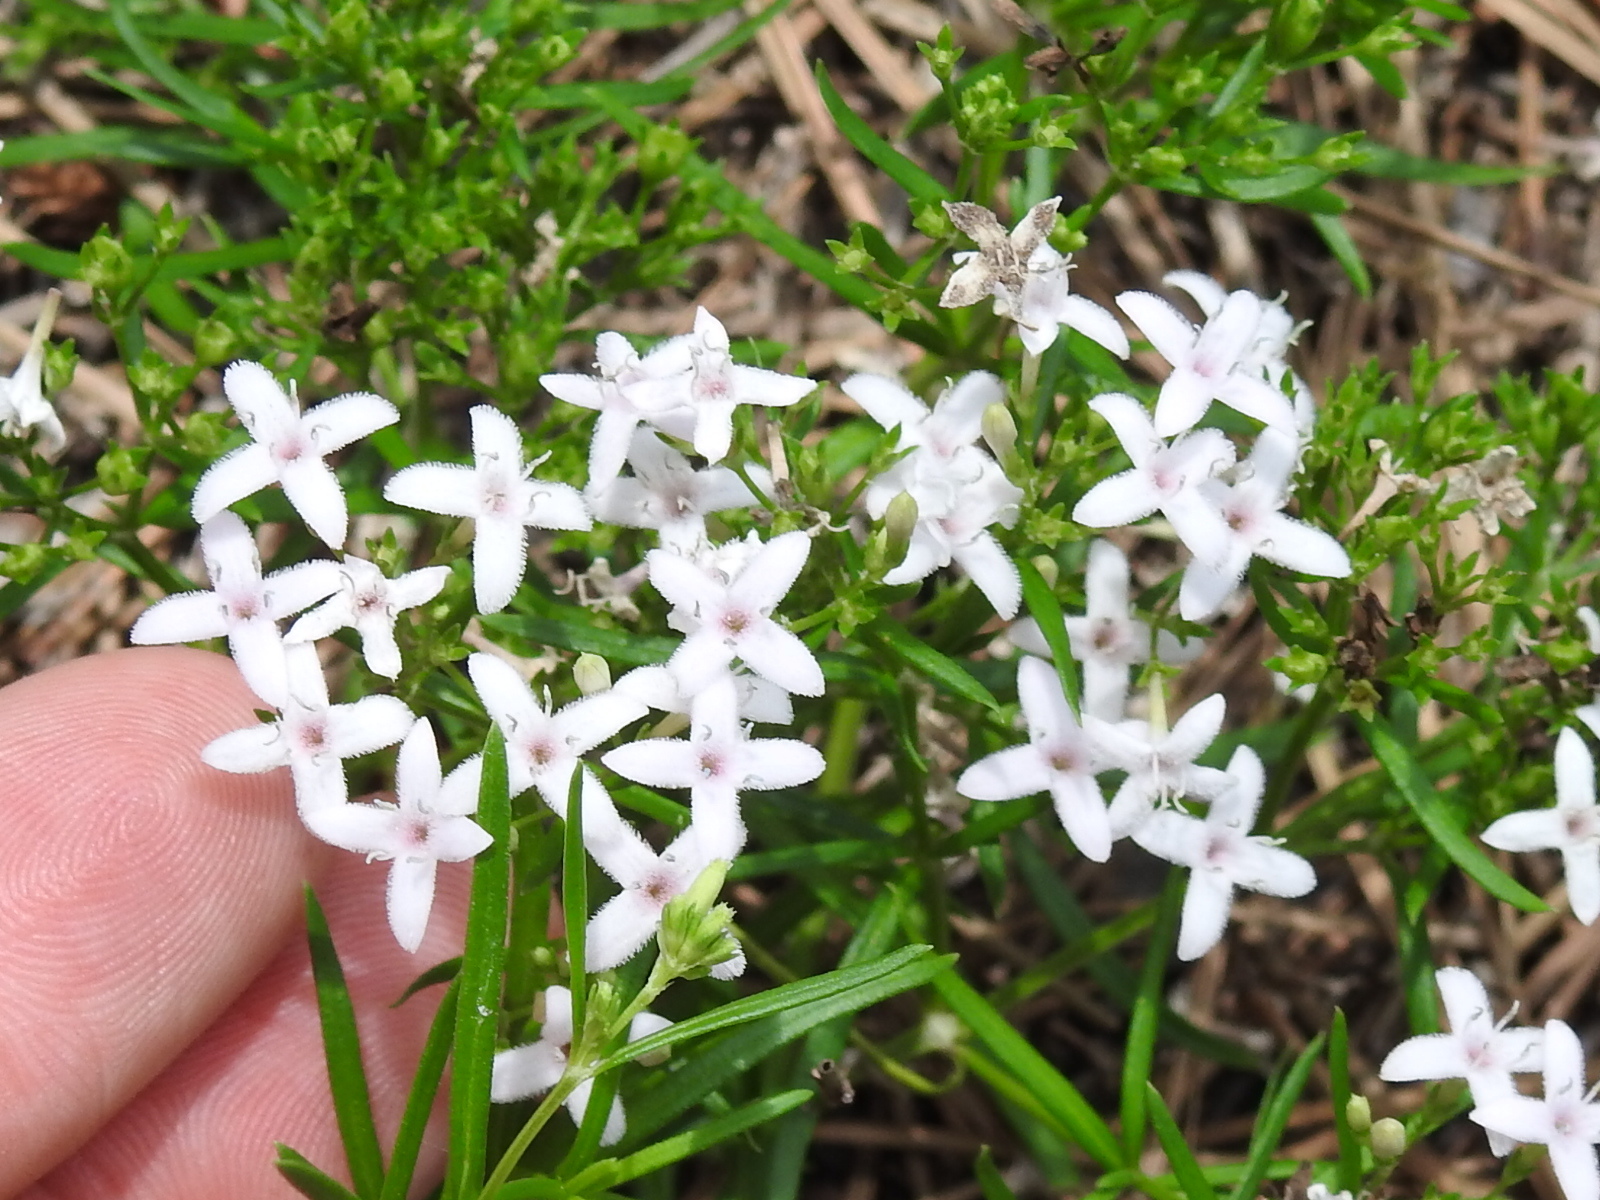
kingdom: Plantae
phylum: Tracheophyta
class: Magnoliopsida
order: Gentianales
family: Rubiaceae
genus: Stenaria
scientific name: Stenaria nigricans
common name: Diamondflowers
